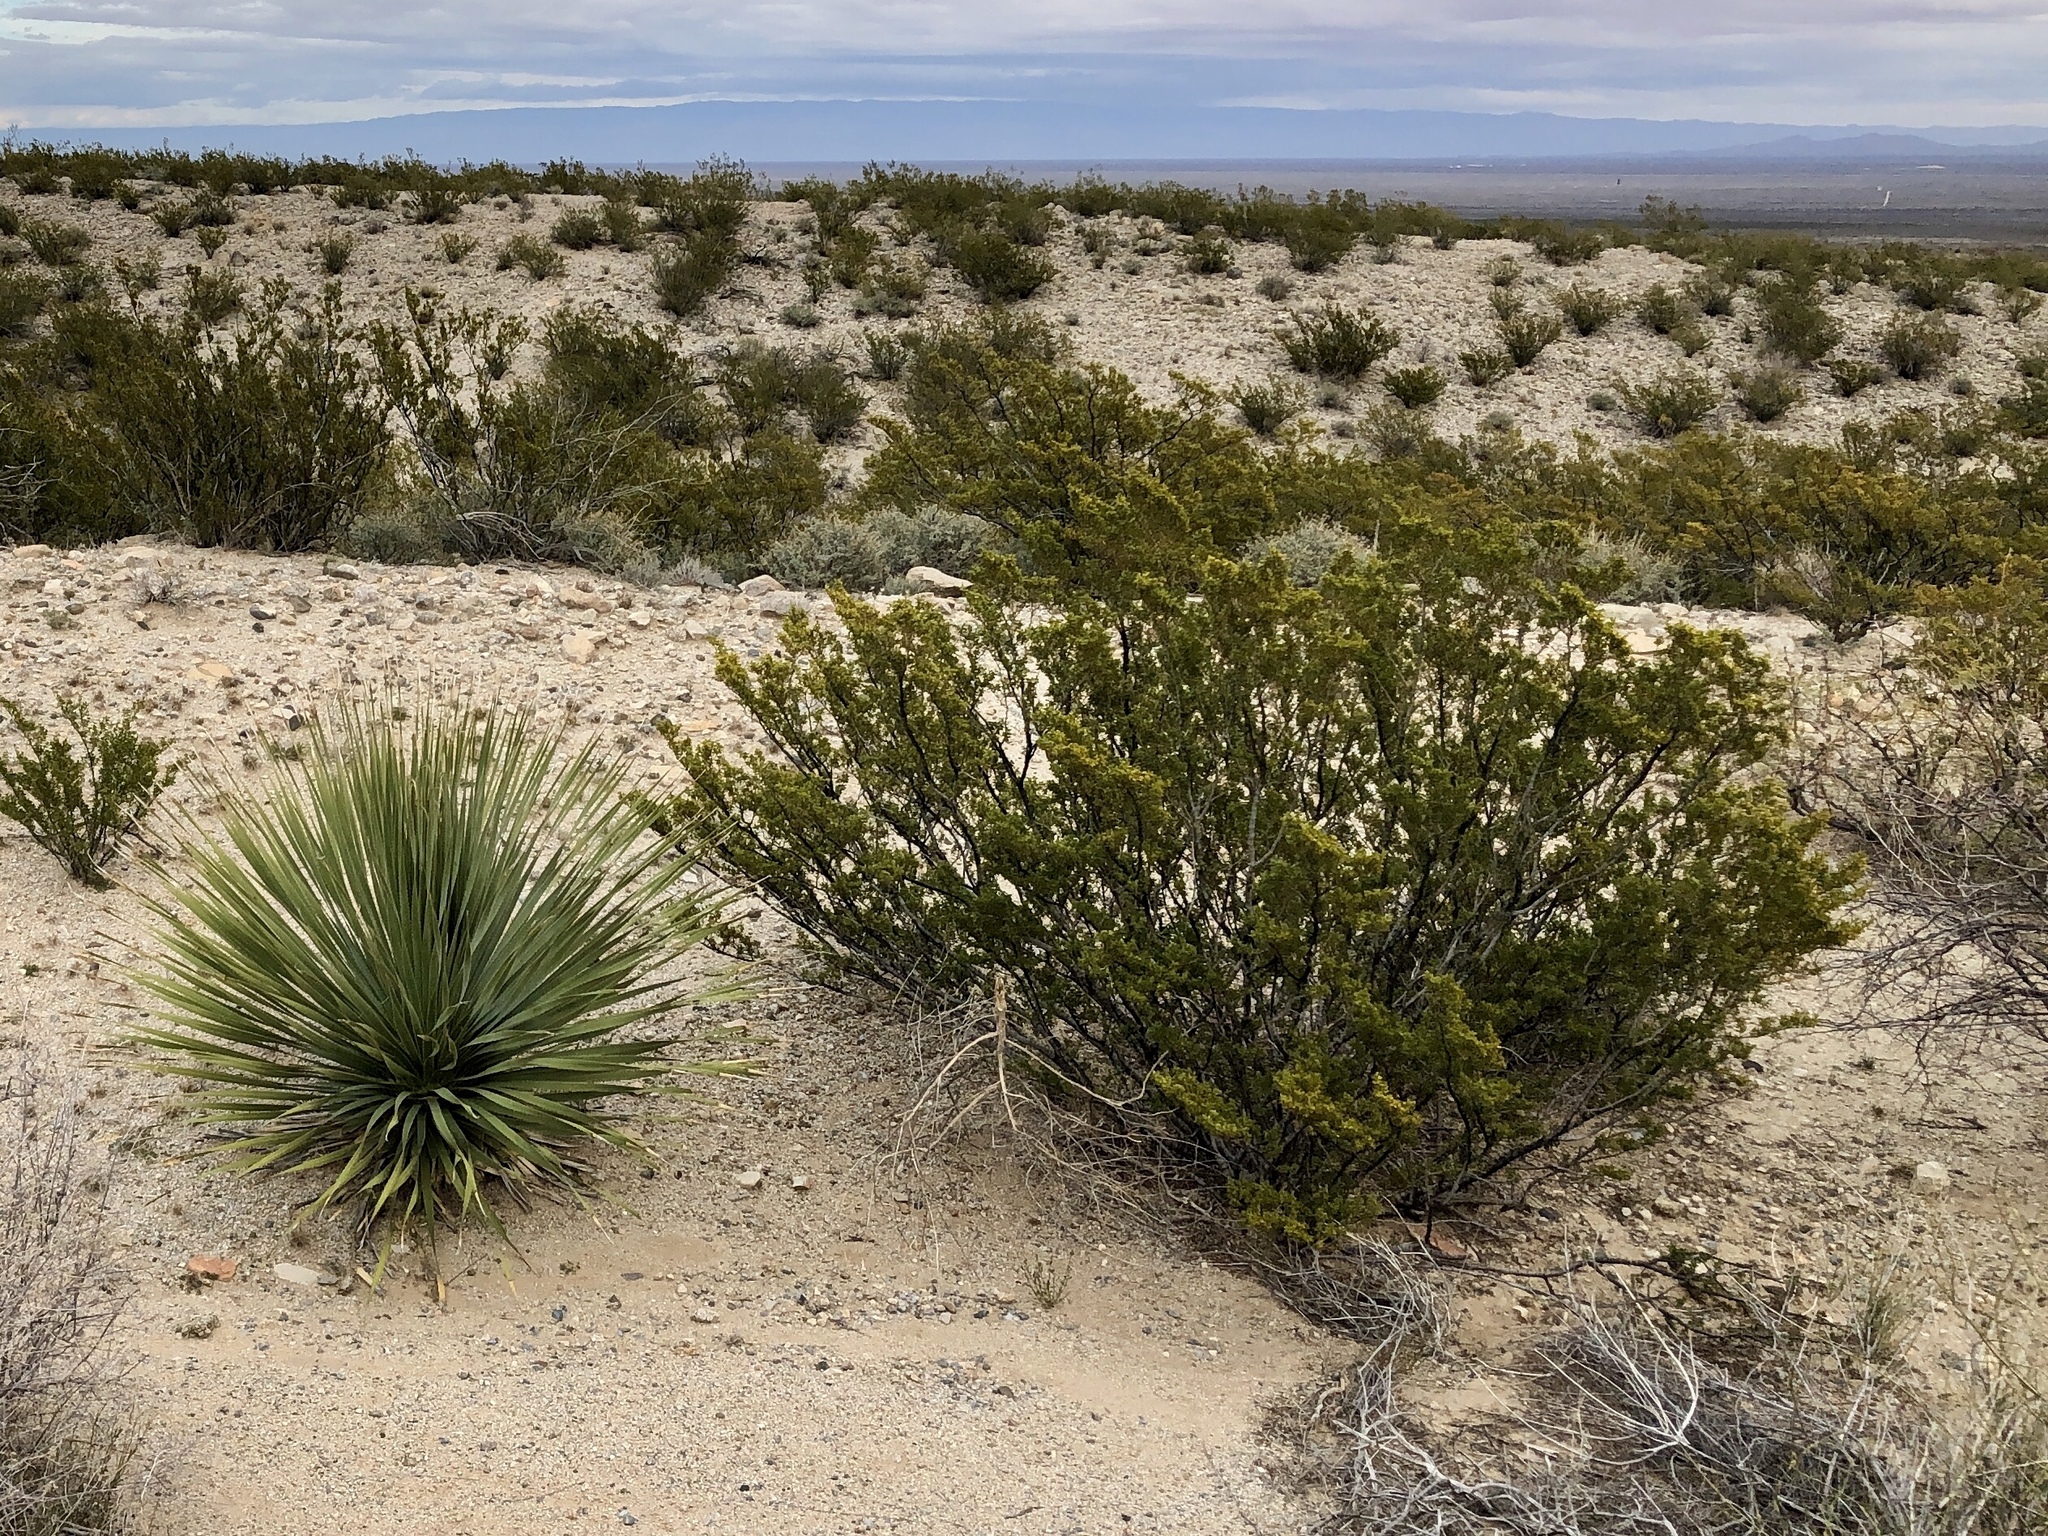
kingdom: Plantae
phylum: Tracheophyta
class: Magnoliopsida
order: Zygophyllales
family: Zygophyllaceae
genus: Larrea
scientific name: Larrea tridentata
